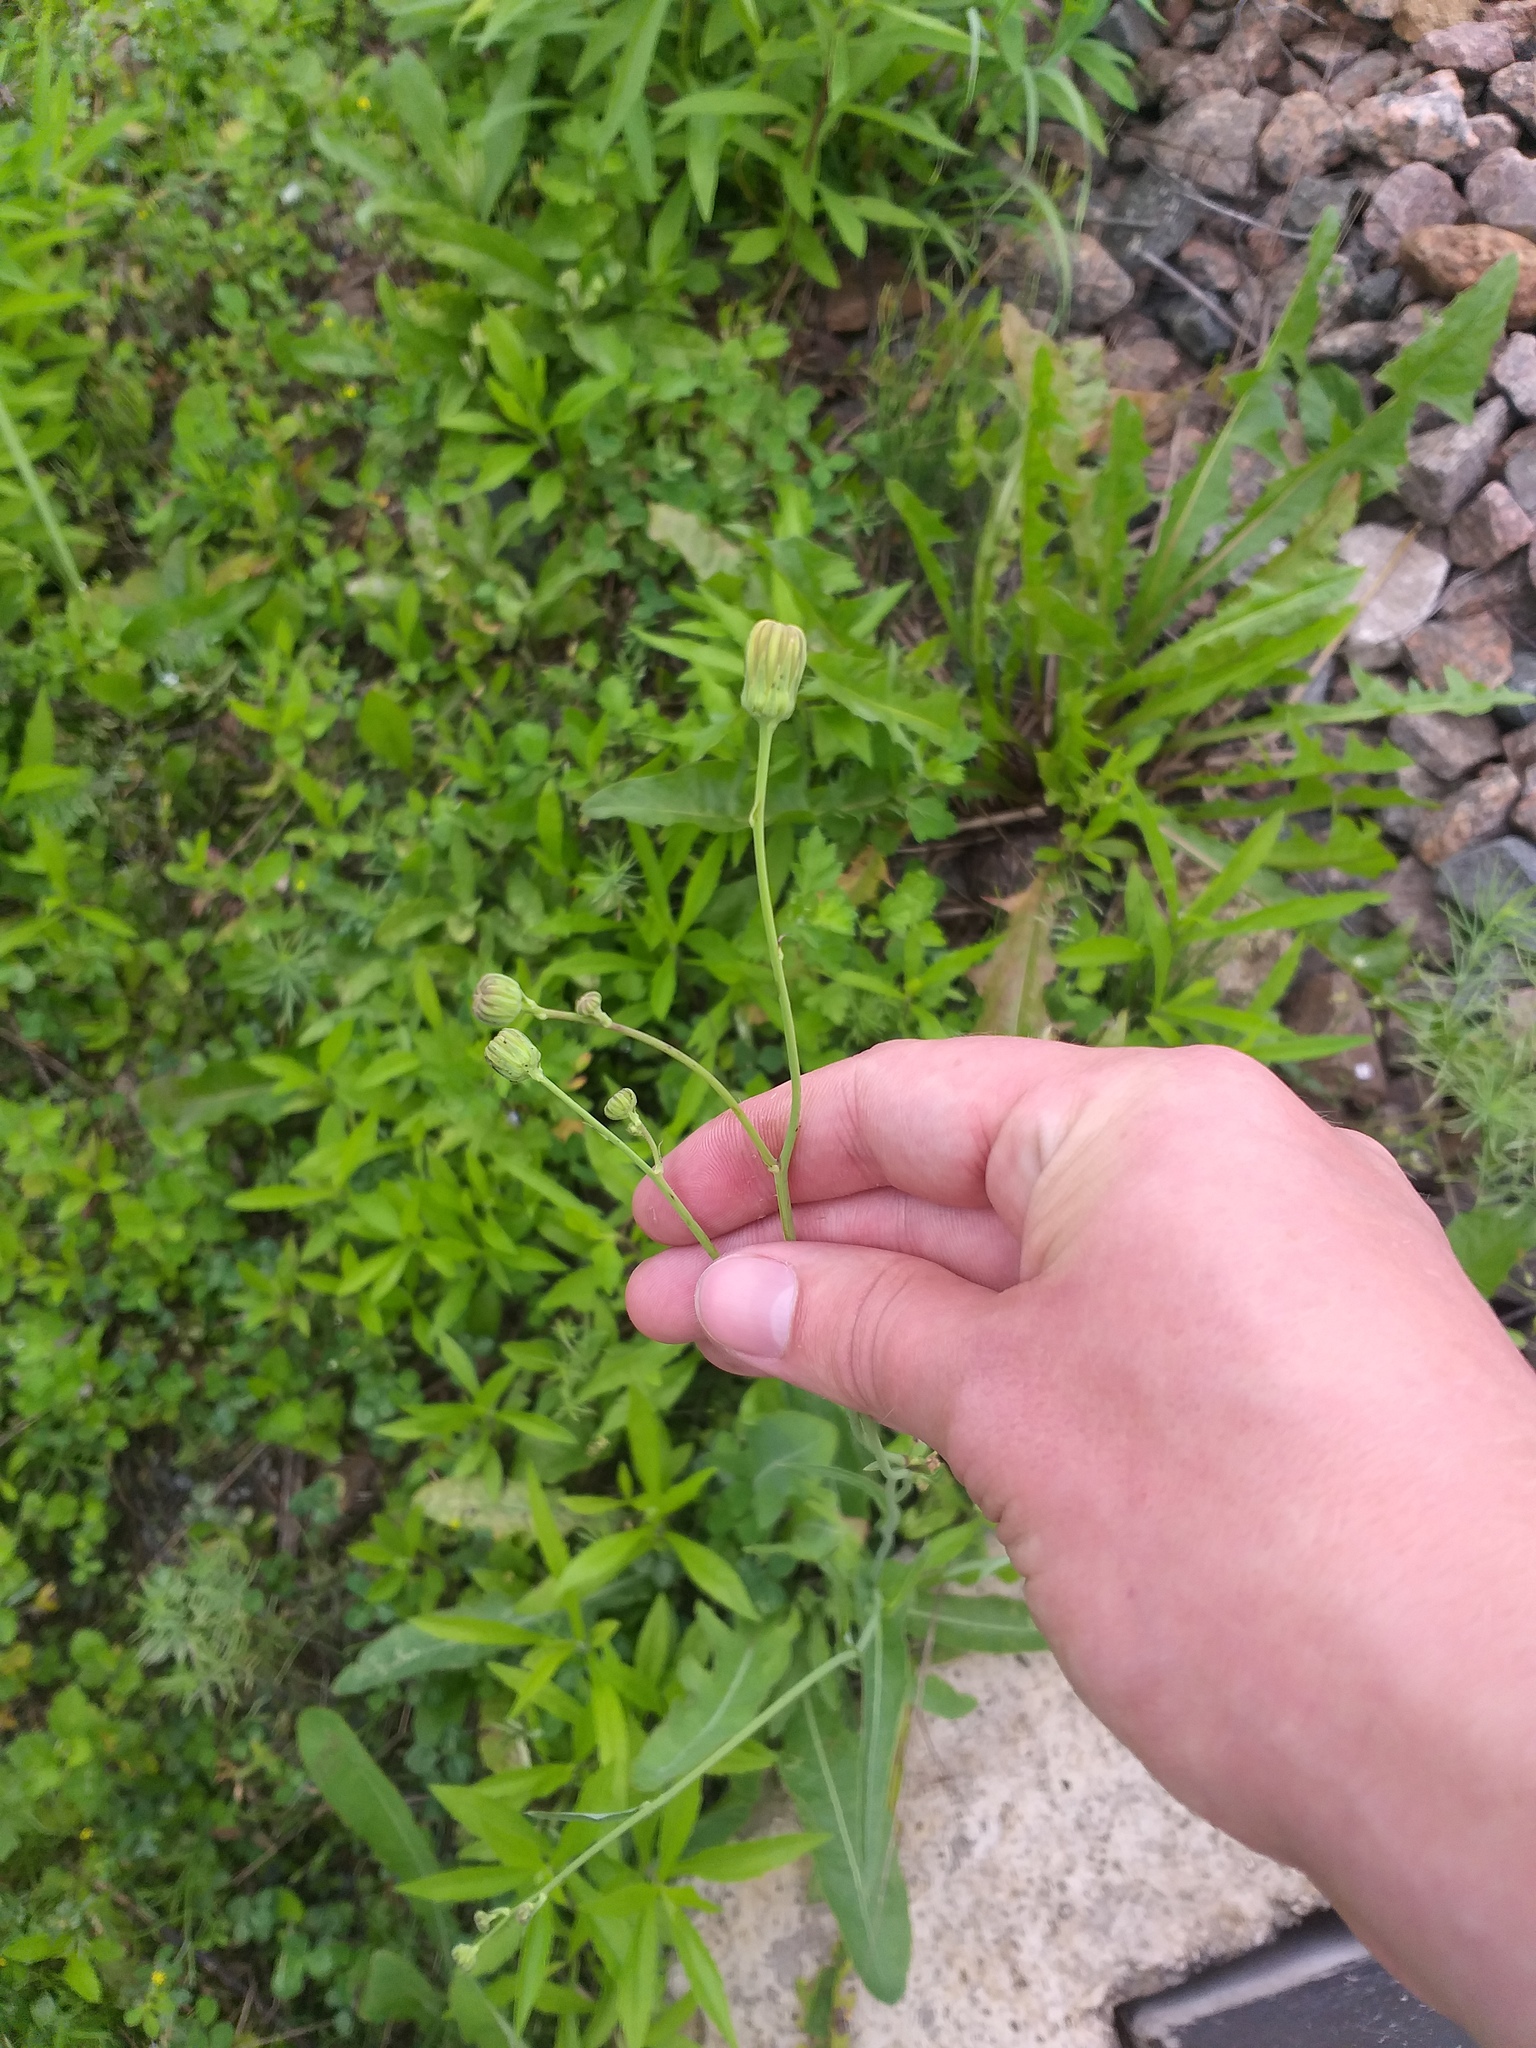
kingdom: Plantae
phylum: Tracheophyta
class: Magnoliopsida
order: Asterales
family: Asteraceae
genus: Sonchus
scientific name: Sonchus arvensis
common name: Perennial sow-thistle
